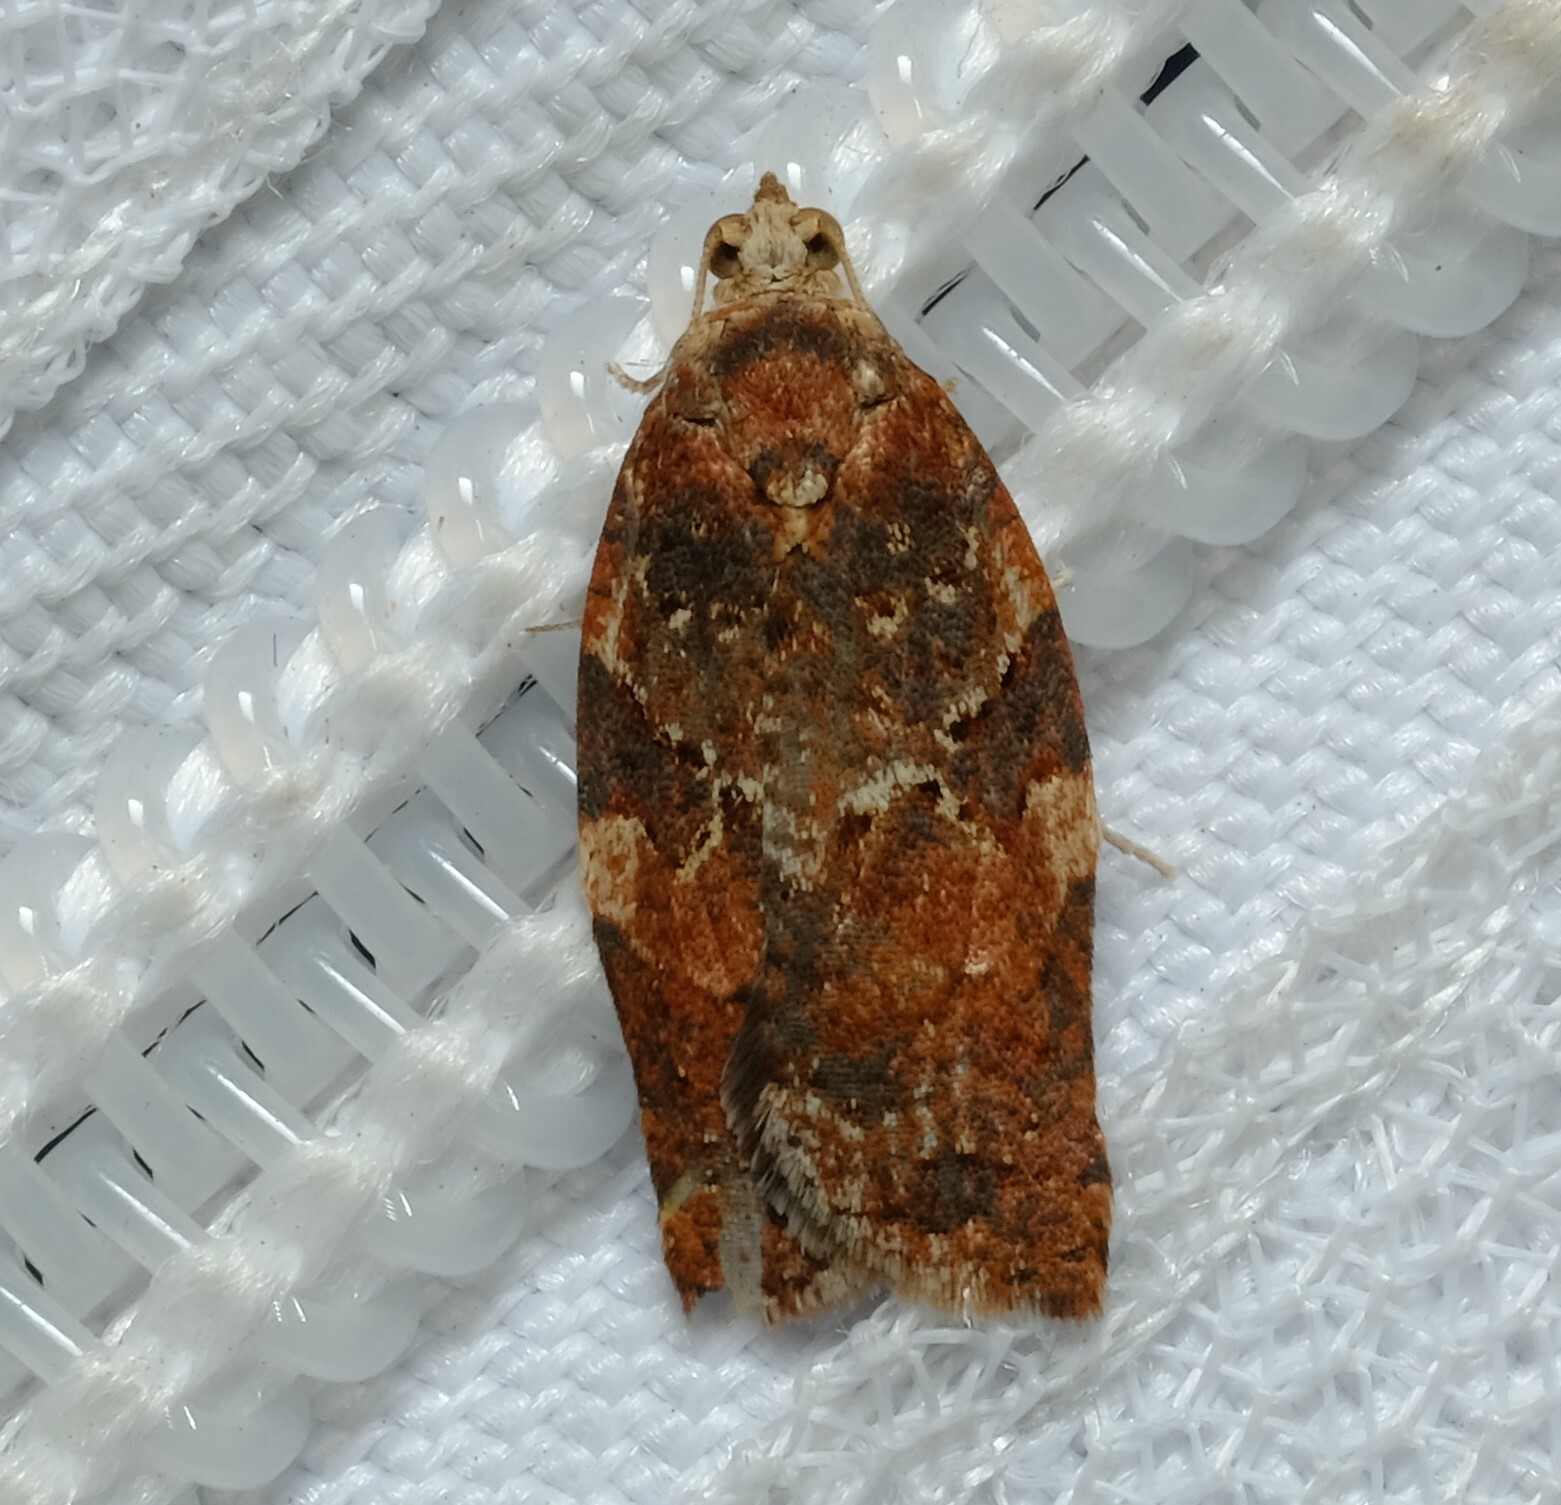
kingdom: Animalia
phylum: Arthropoda
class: Insecta
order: Lepidoptera
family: Tortricidae
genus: Epiphyas
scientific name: Epiphyas ashworthana
